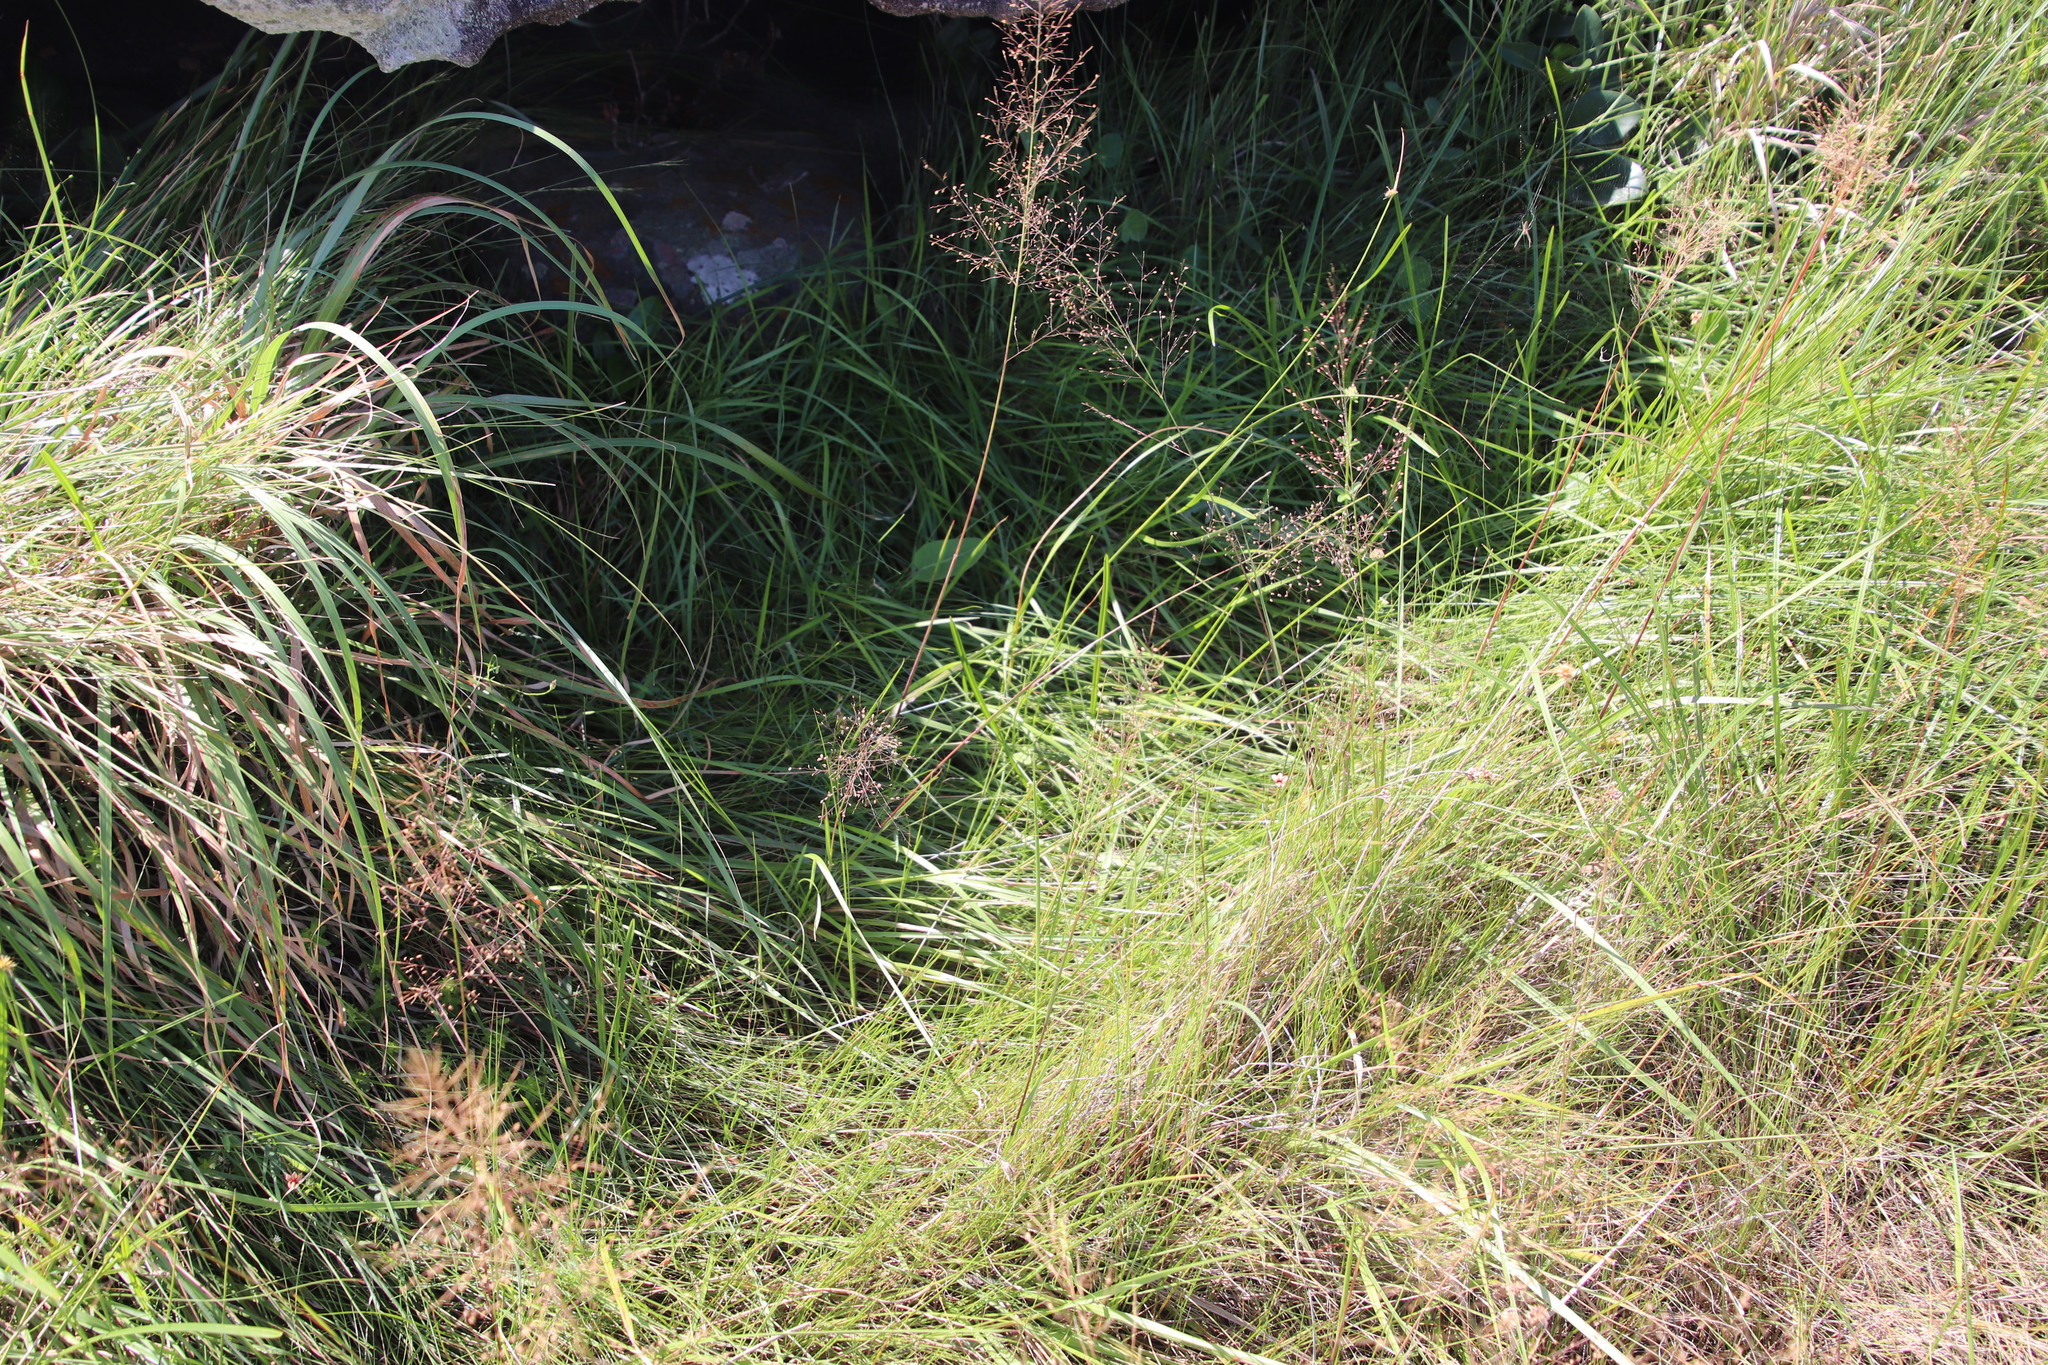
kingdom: Plantae
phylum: Tracheophyta
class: Liliopsida
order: Poales
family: Poaceae
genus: Megathyrsus
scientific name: Megathyrsus maximus
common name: Guineagrass
